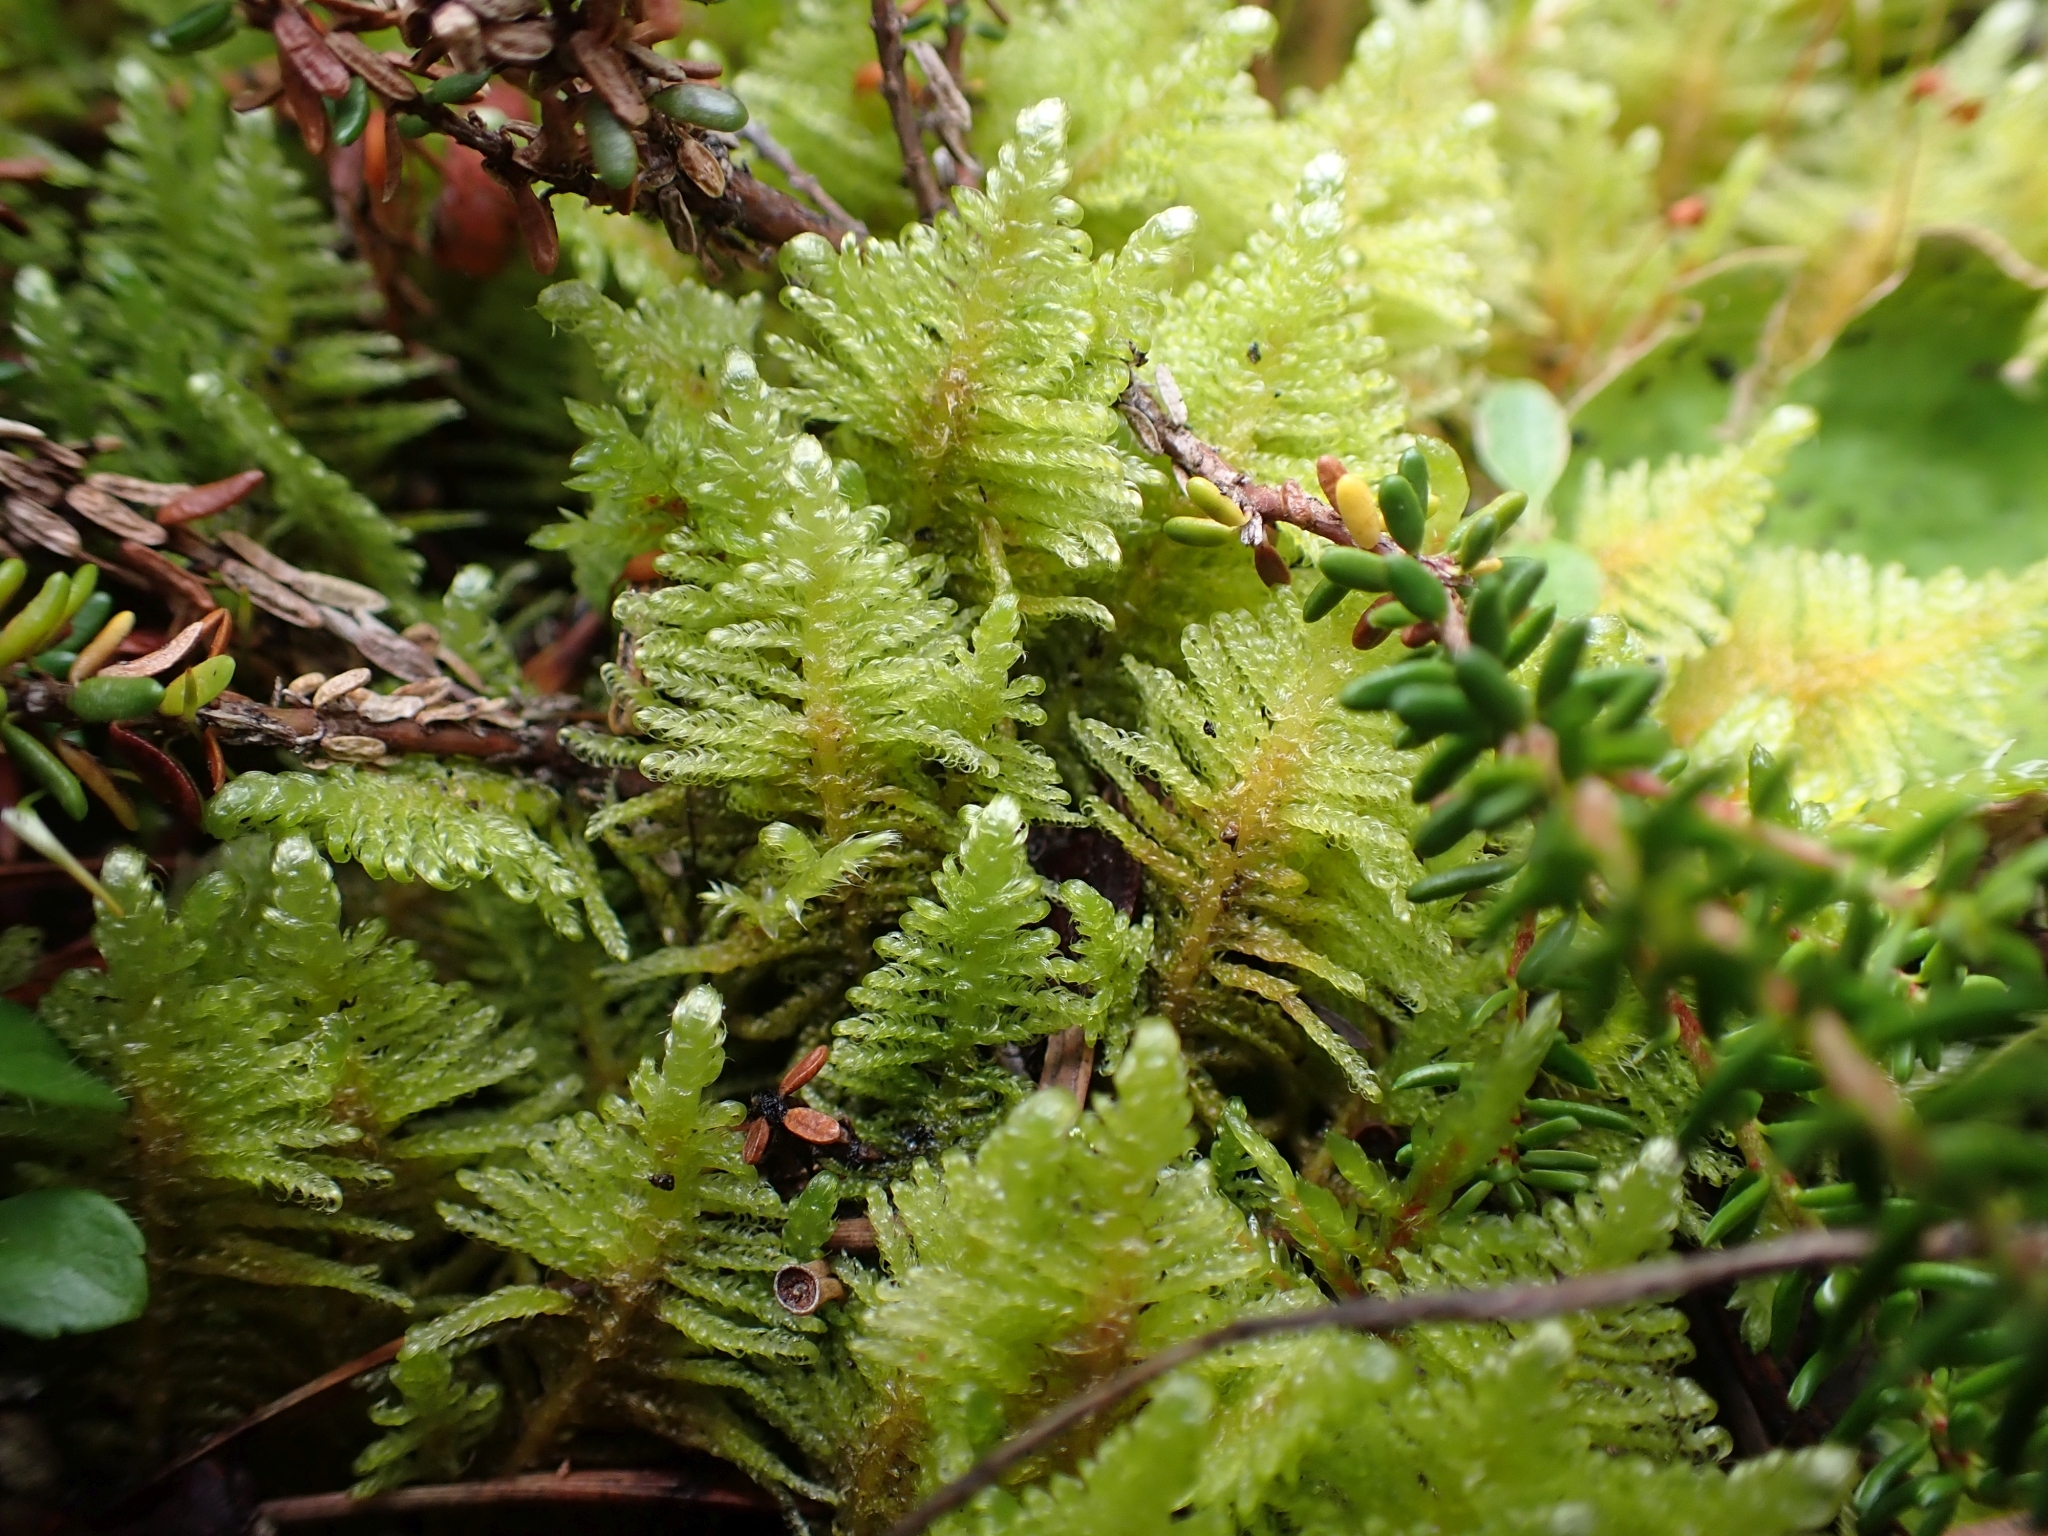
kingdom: Plantae
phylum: Bryophyta
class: Bryopsida
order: Hypnales
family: Pylaisiaceae
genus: Ptilium
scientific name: Ptilium crista-castrensis
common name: Knight's plume moss
